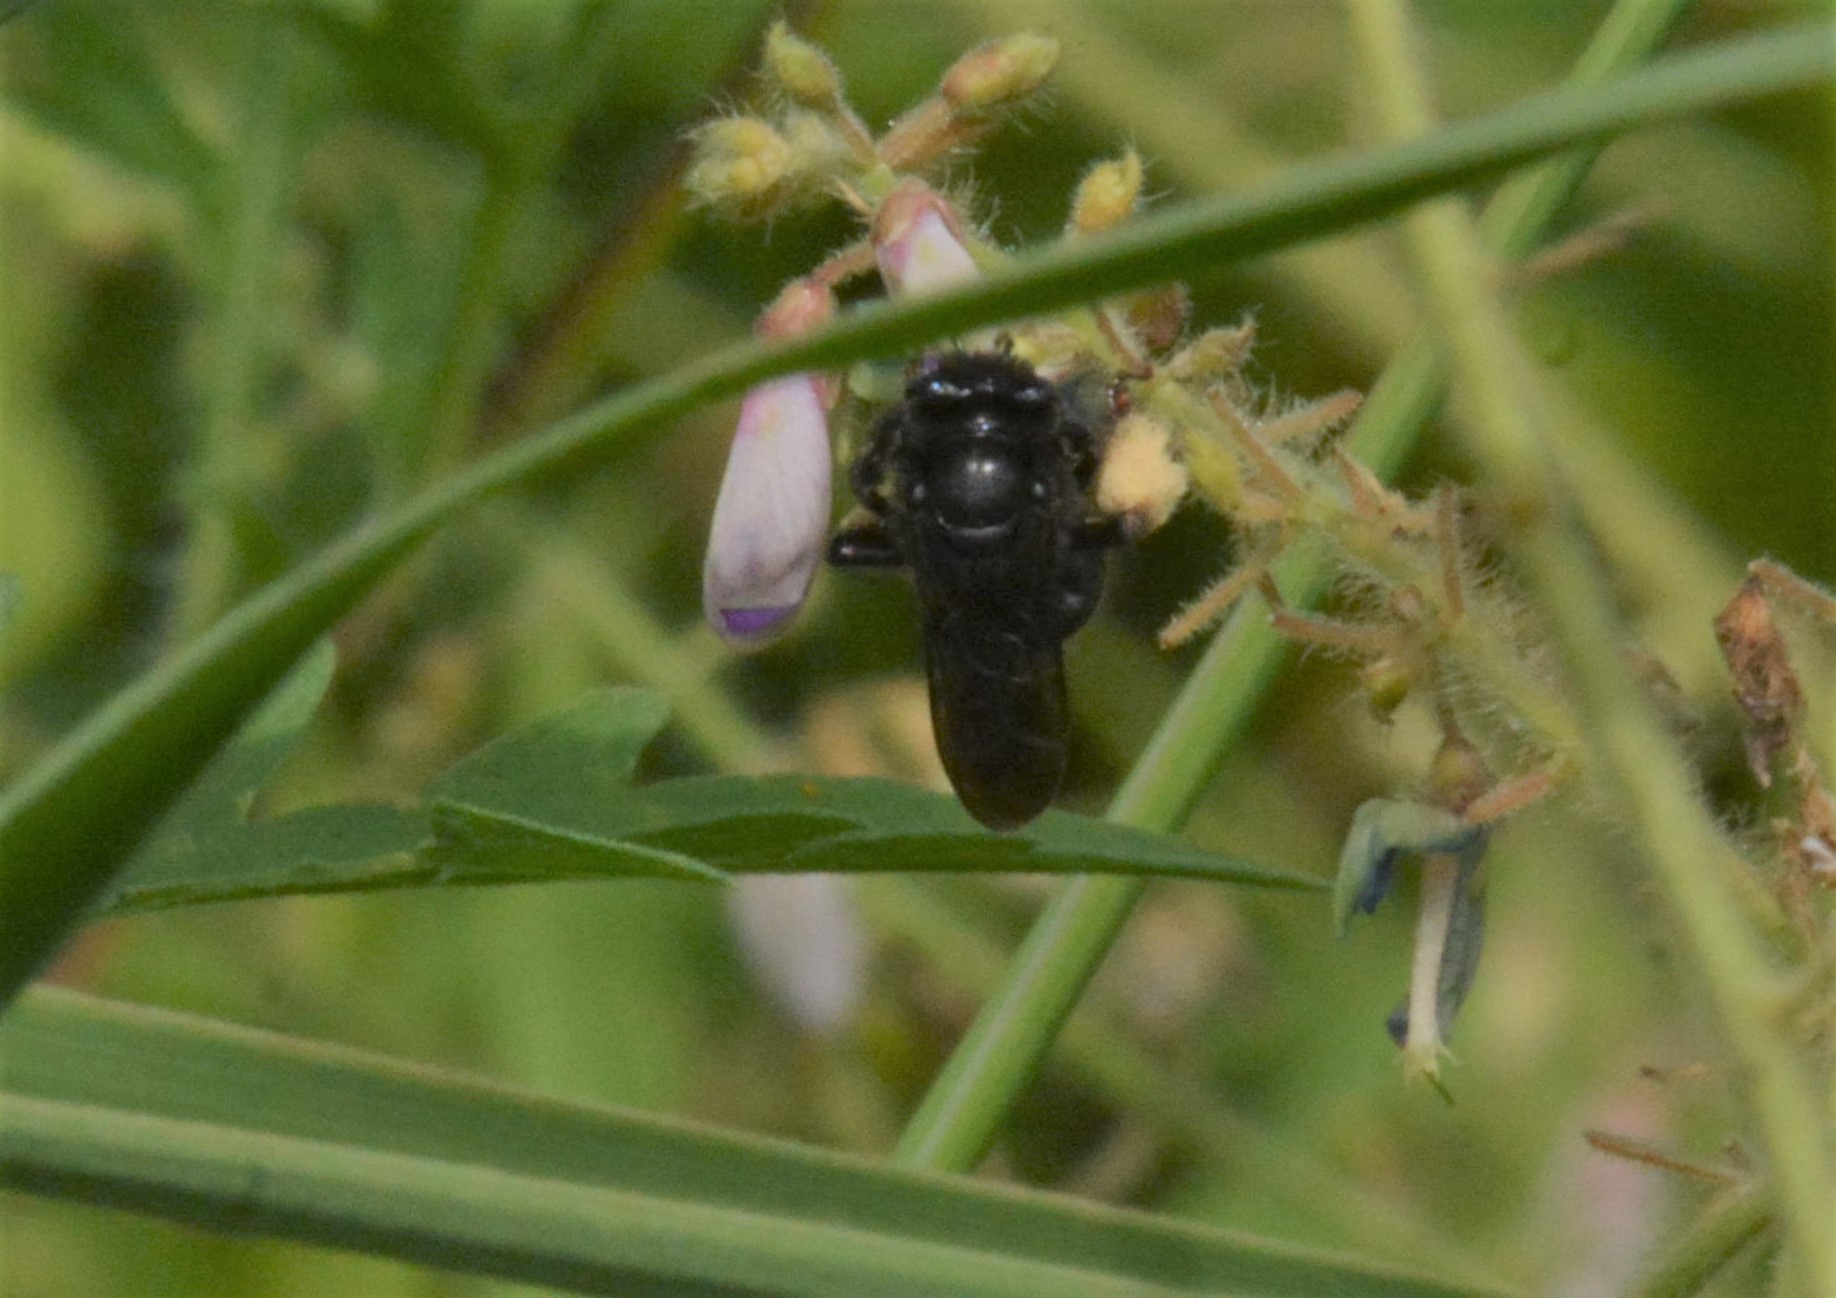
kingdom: Animalia
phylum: Arthropoda
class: Insecta
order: Hymenoptera
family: Apidae
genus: Melissodes
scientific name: Melissodes bimaculatus
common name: Two-spotted long-horned bee
